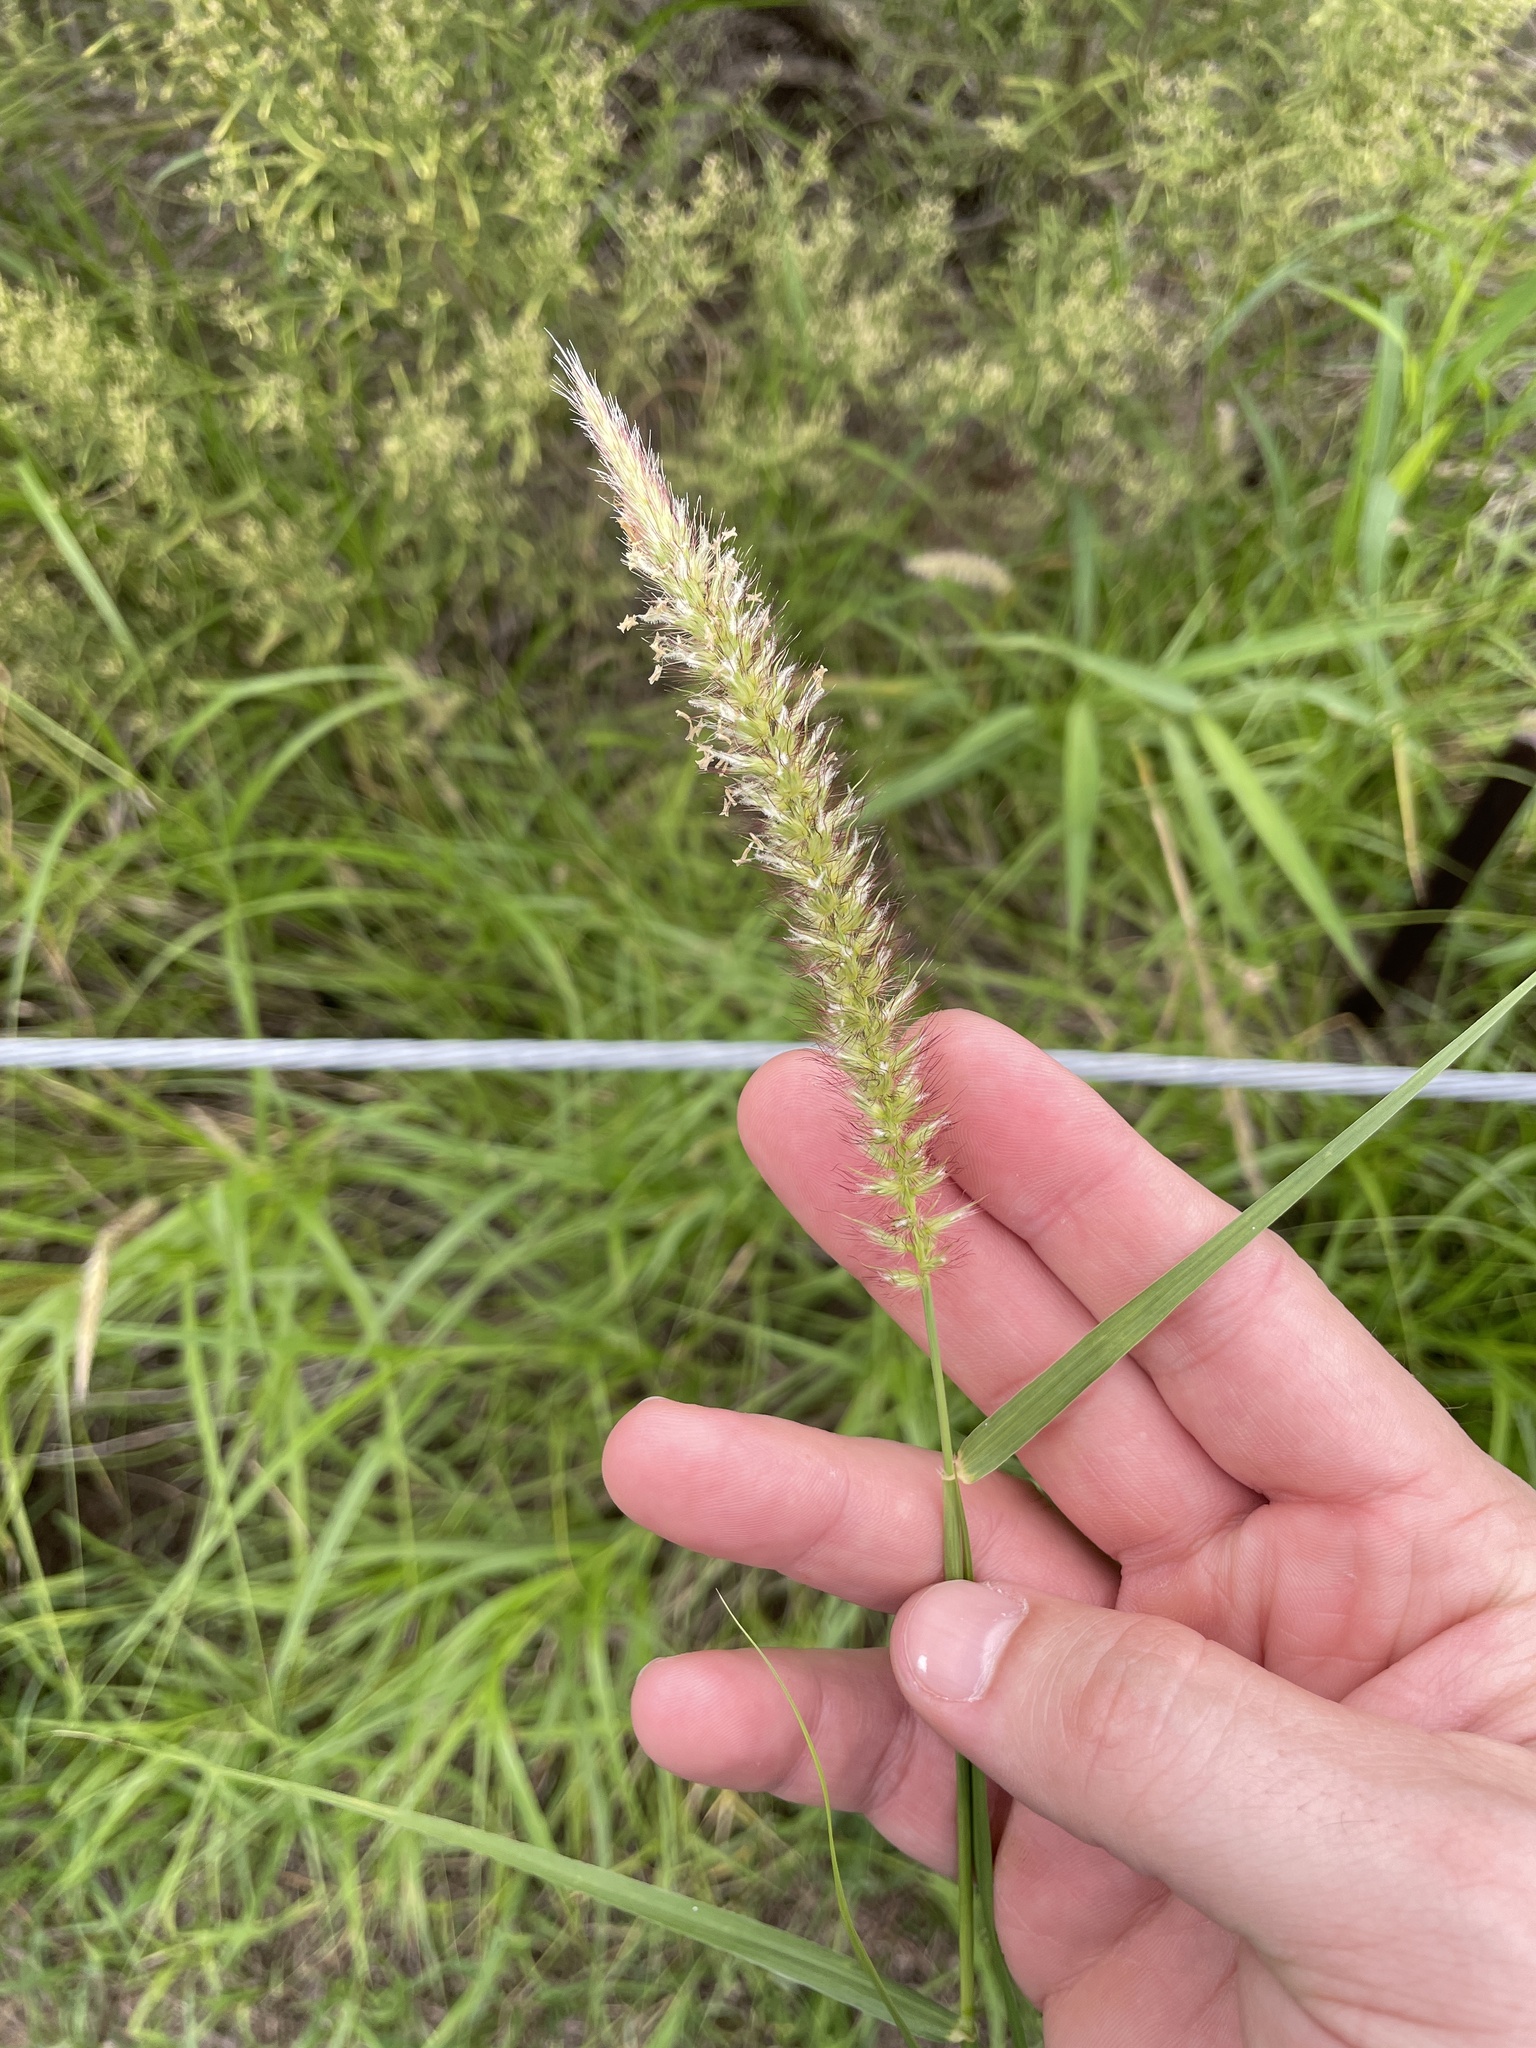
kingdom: Plantae
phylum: Tracheophyta
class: Liliopsida
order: Poales
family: Poaceae
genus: Cenchrus
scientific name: Cenchrus ciliaris
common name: Buffelgrass
